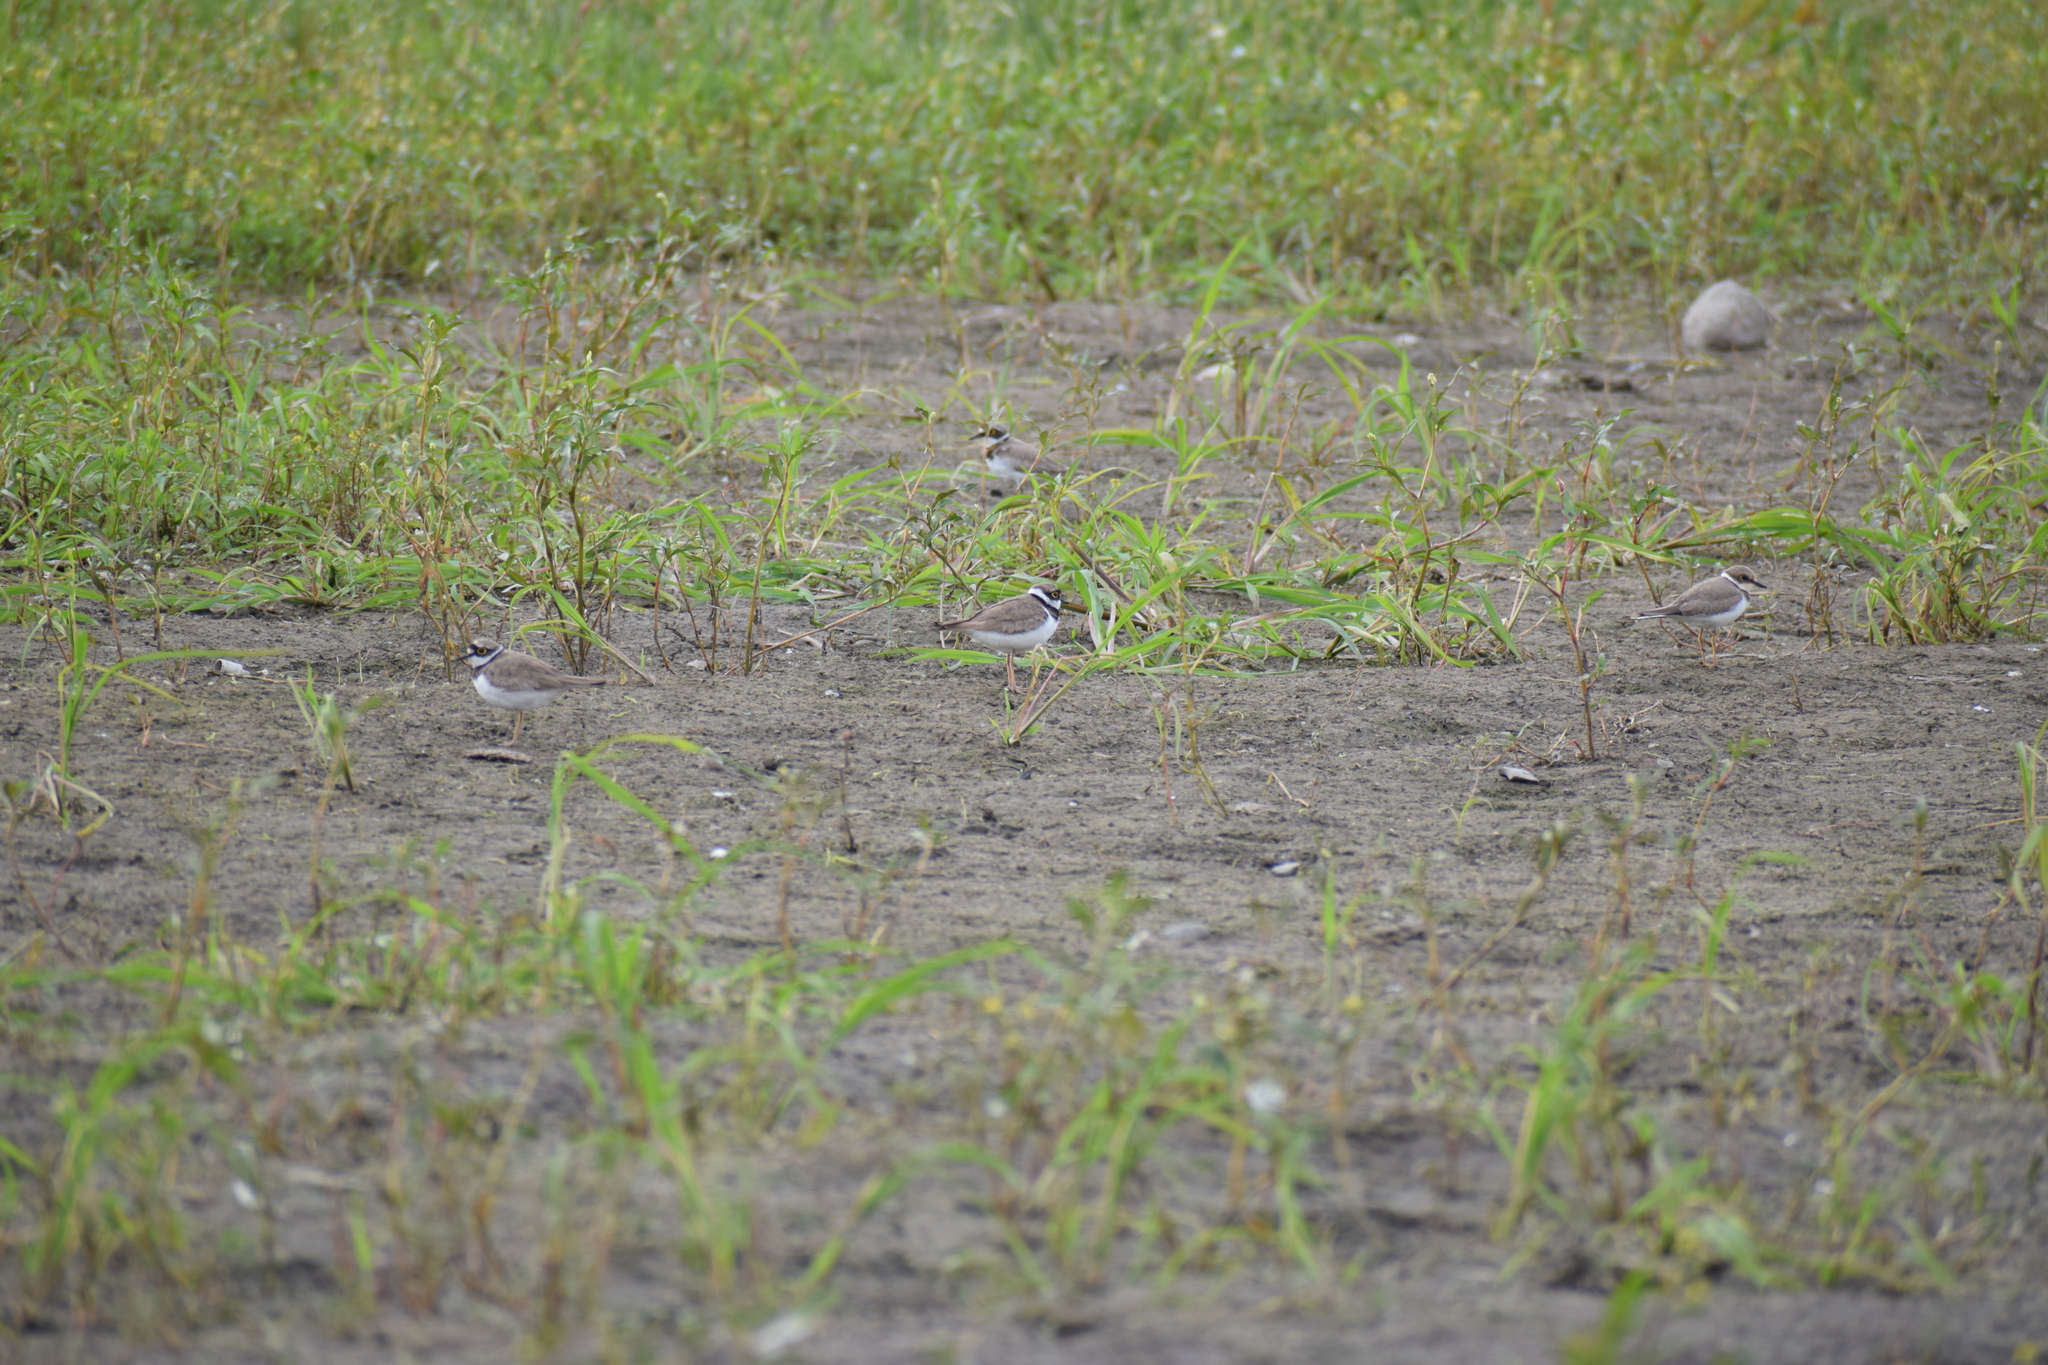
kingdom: Animalia
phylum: Chordata
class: Aves
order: Charadriiformes
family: Charadriidae
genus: Charadrius
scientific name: Charadrius dubius
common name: Little ringed plover
